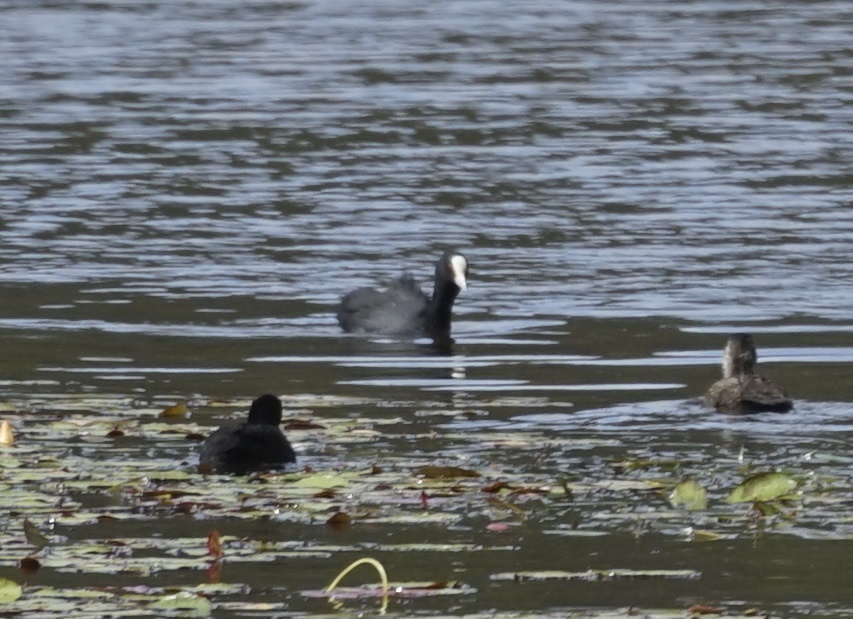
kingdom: Animalia
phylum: Chordata
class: Aves
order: Gruiformes
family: Rallidae
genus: Fulica
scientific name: Fulica atra
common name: Eurasian coot
